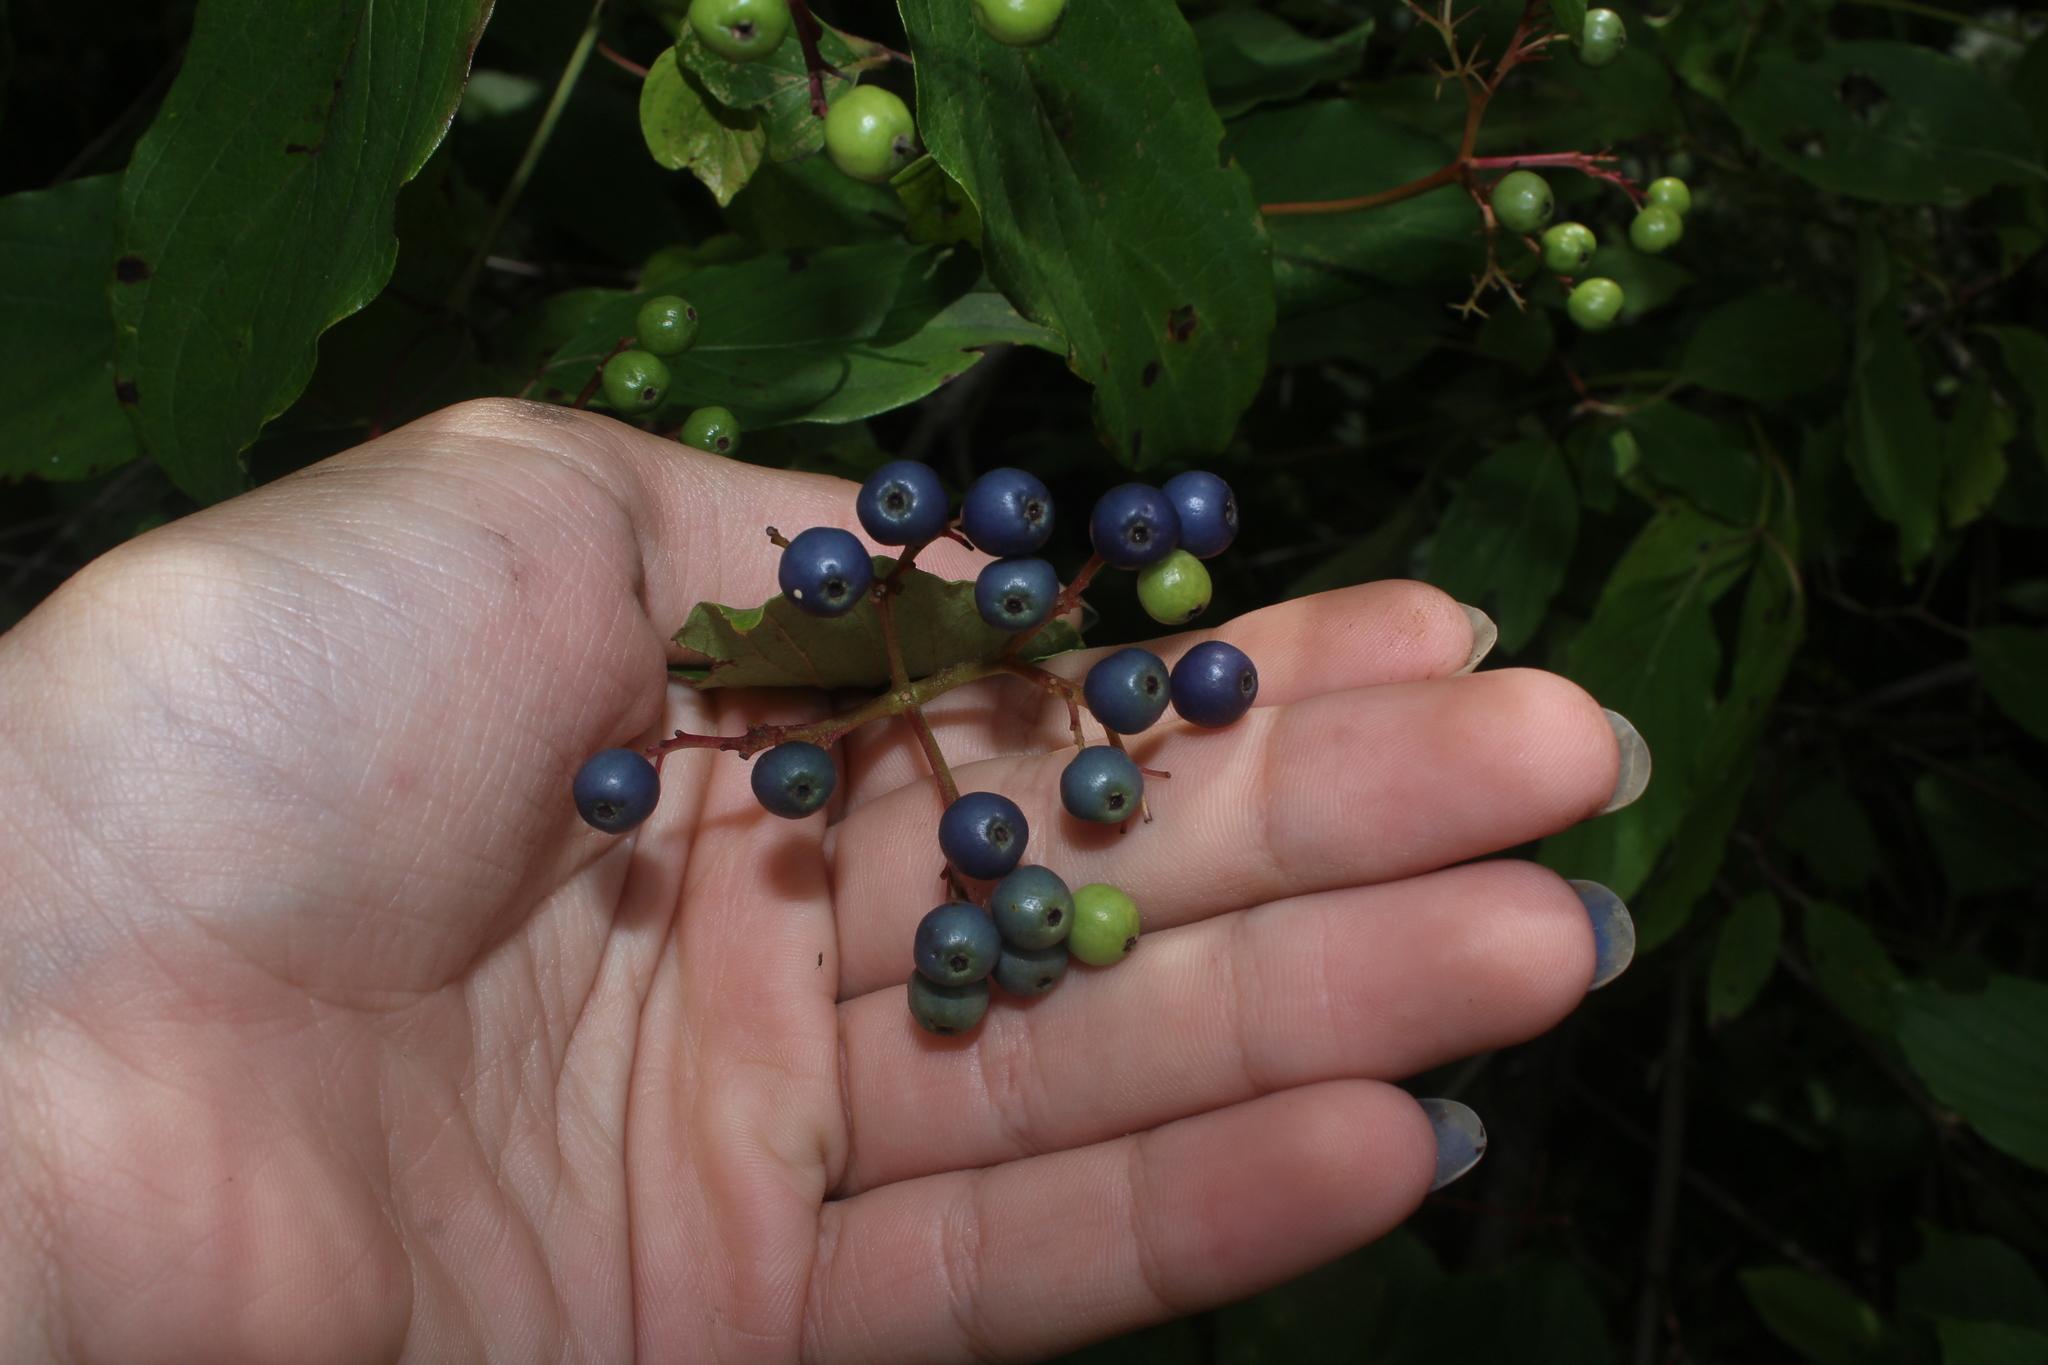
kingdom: Plantae
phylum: Tracheophyta
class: Magnoliopsida
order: Cornales
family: Cornaceae
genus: Cornus
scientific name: Cornus amomum
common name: Silky dogwood
